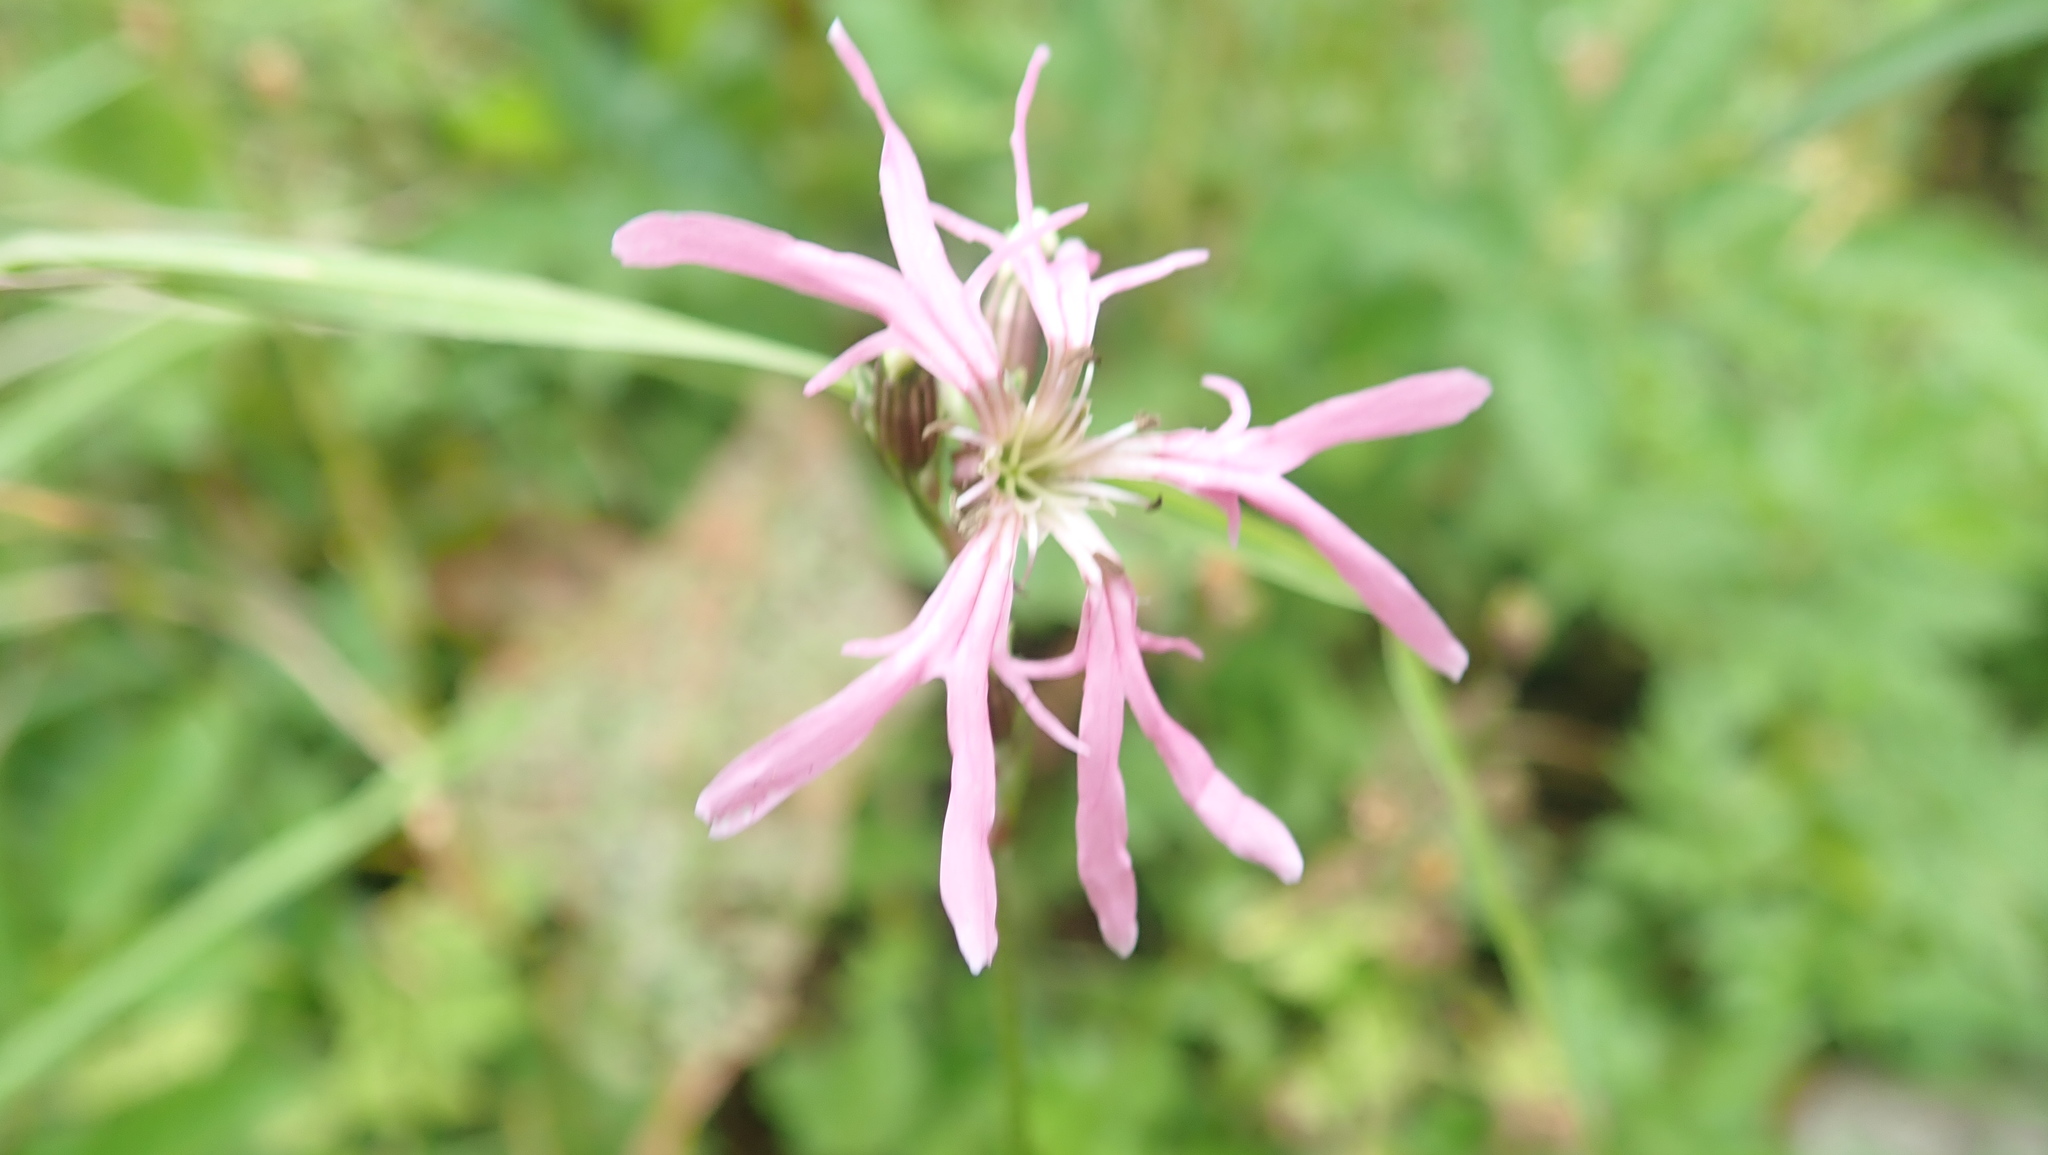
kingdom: Plantae
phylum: Tracheophyta
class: Magnoliopsida
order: Caryophyllales
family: Caryophyllaceae
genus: Silene
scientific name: Silene flos-cuculi
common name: Ragged-robin
